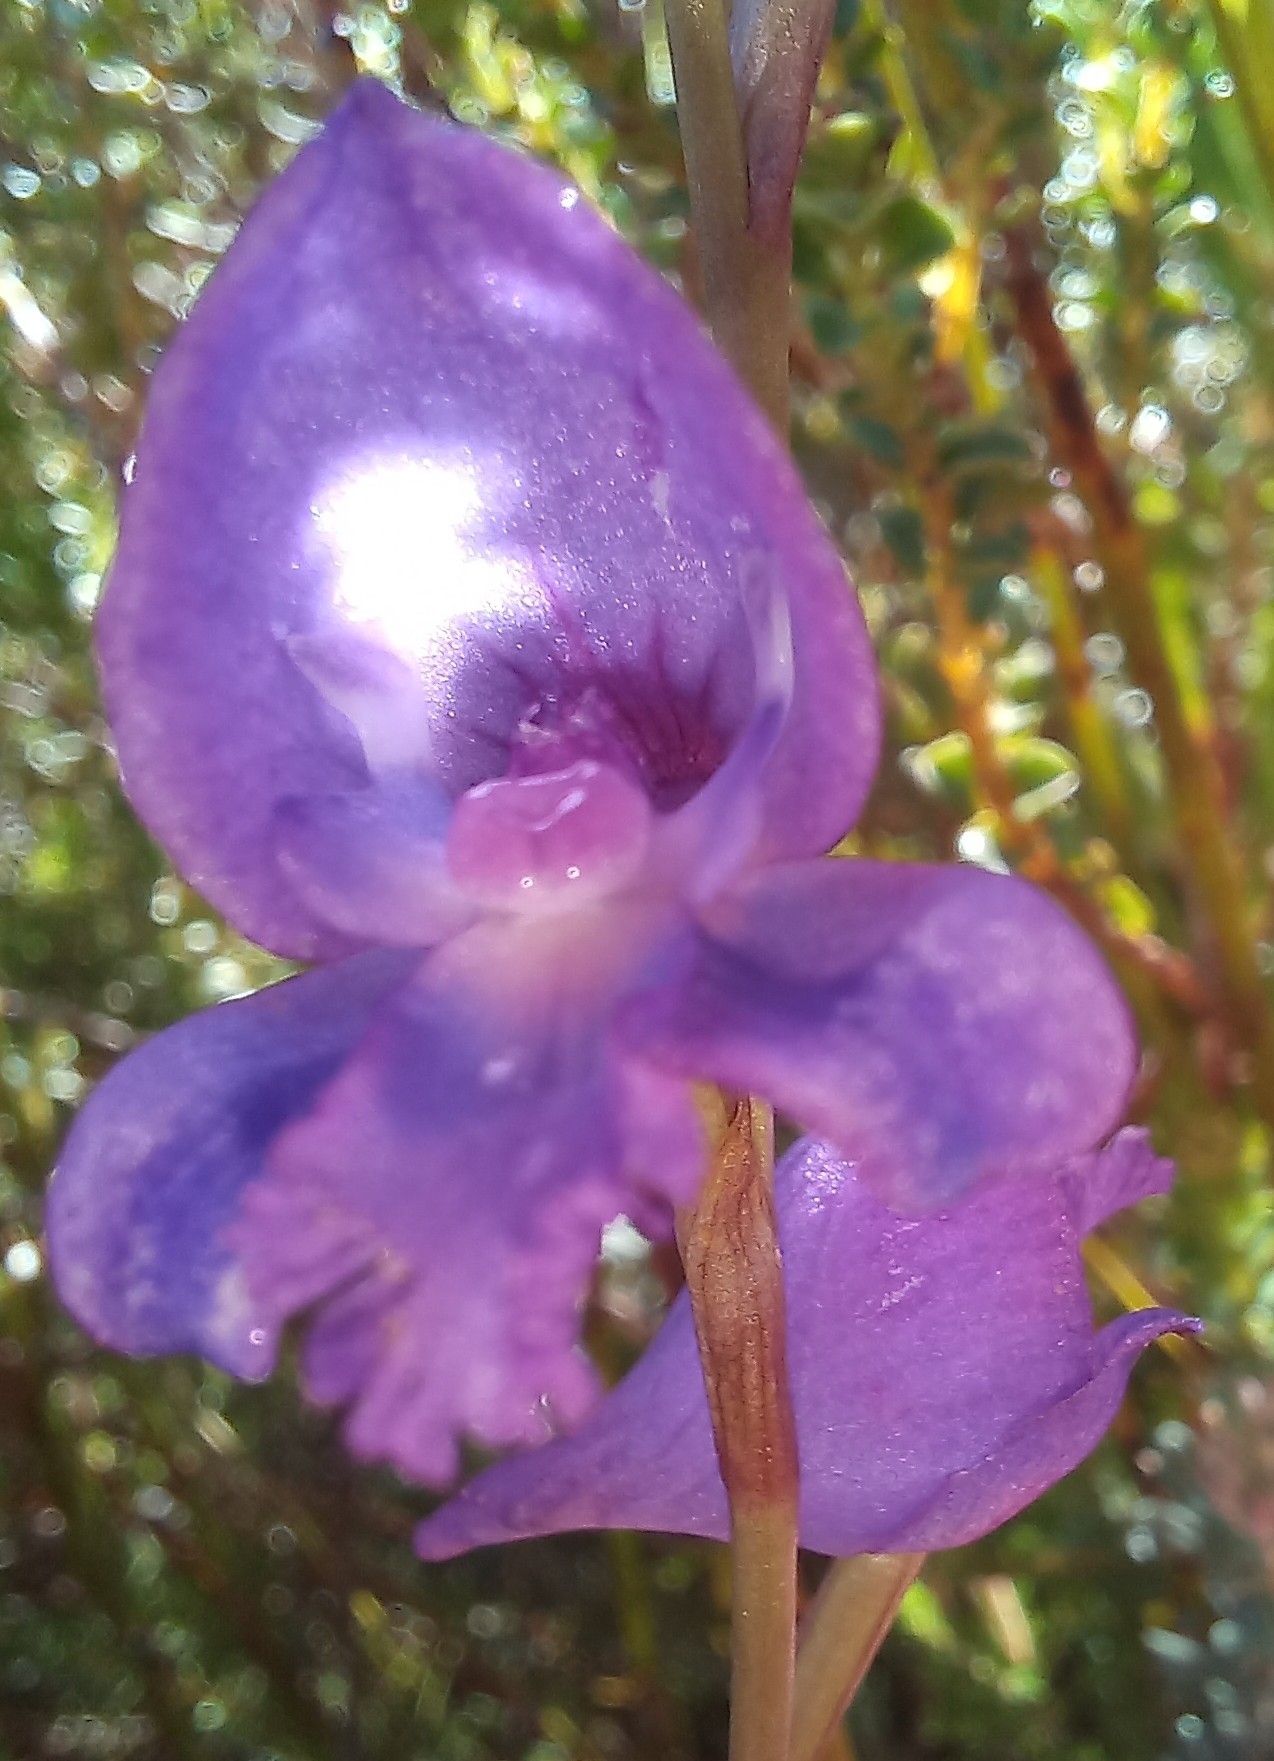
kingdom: Plantae
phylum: Tracheophyta
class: Liliopsida
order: Asparagales
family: Orchidaceae
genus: Disa
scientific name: Disa hians
